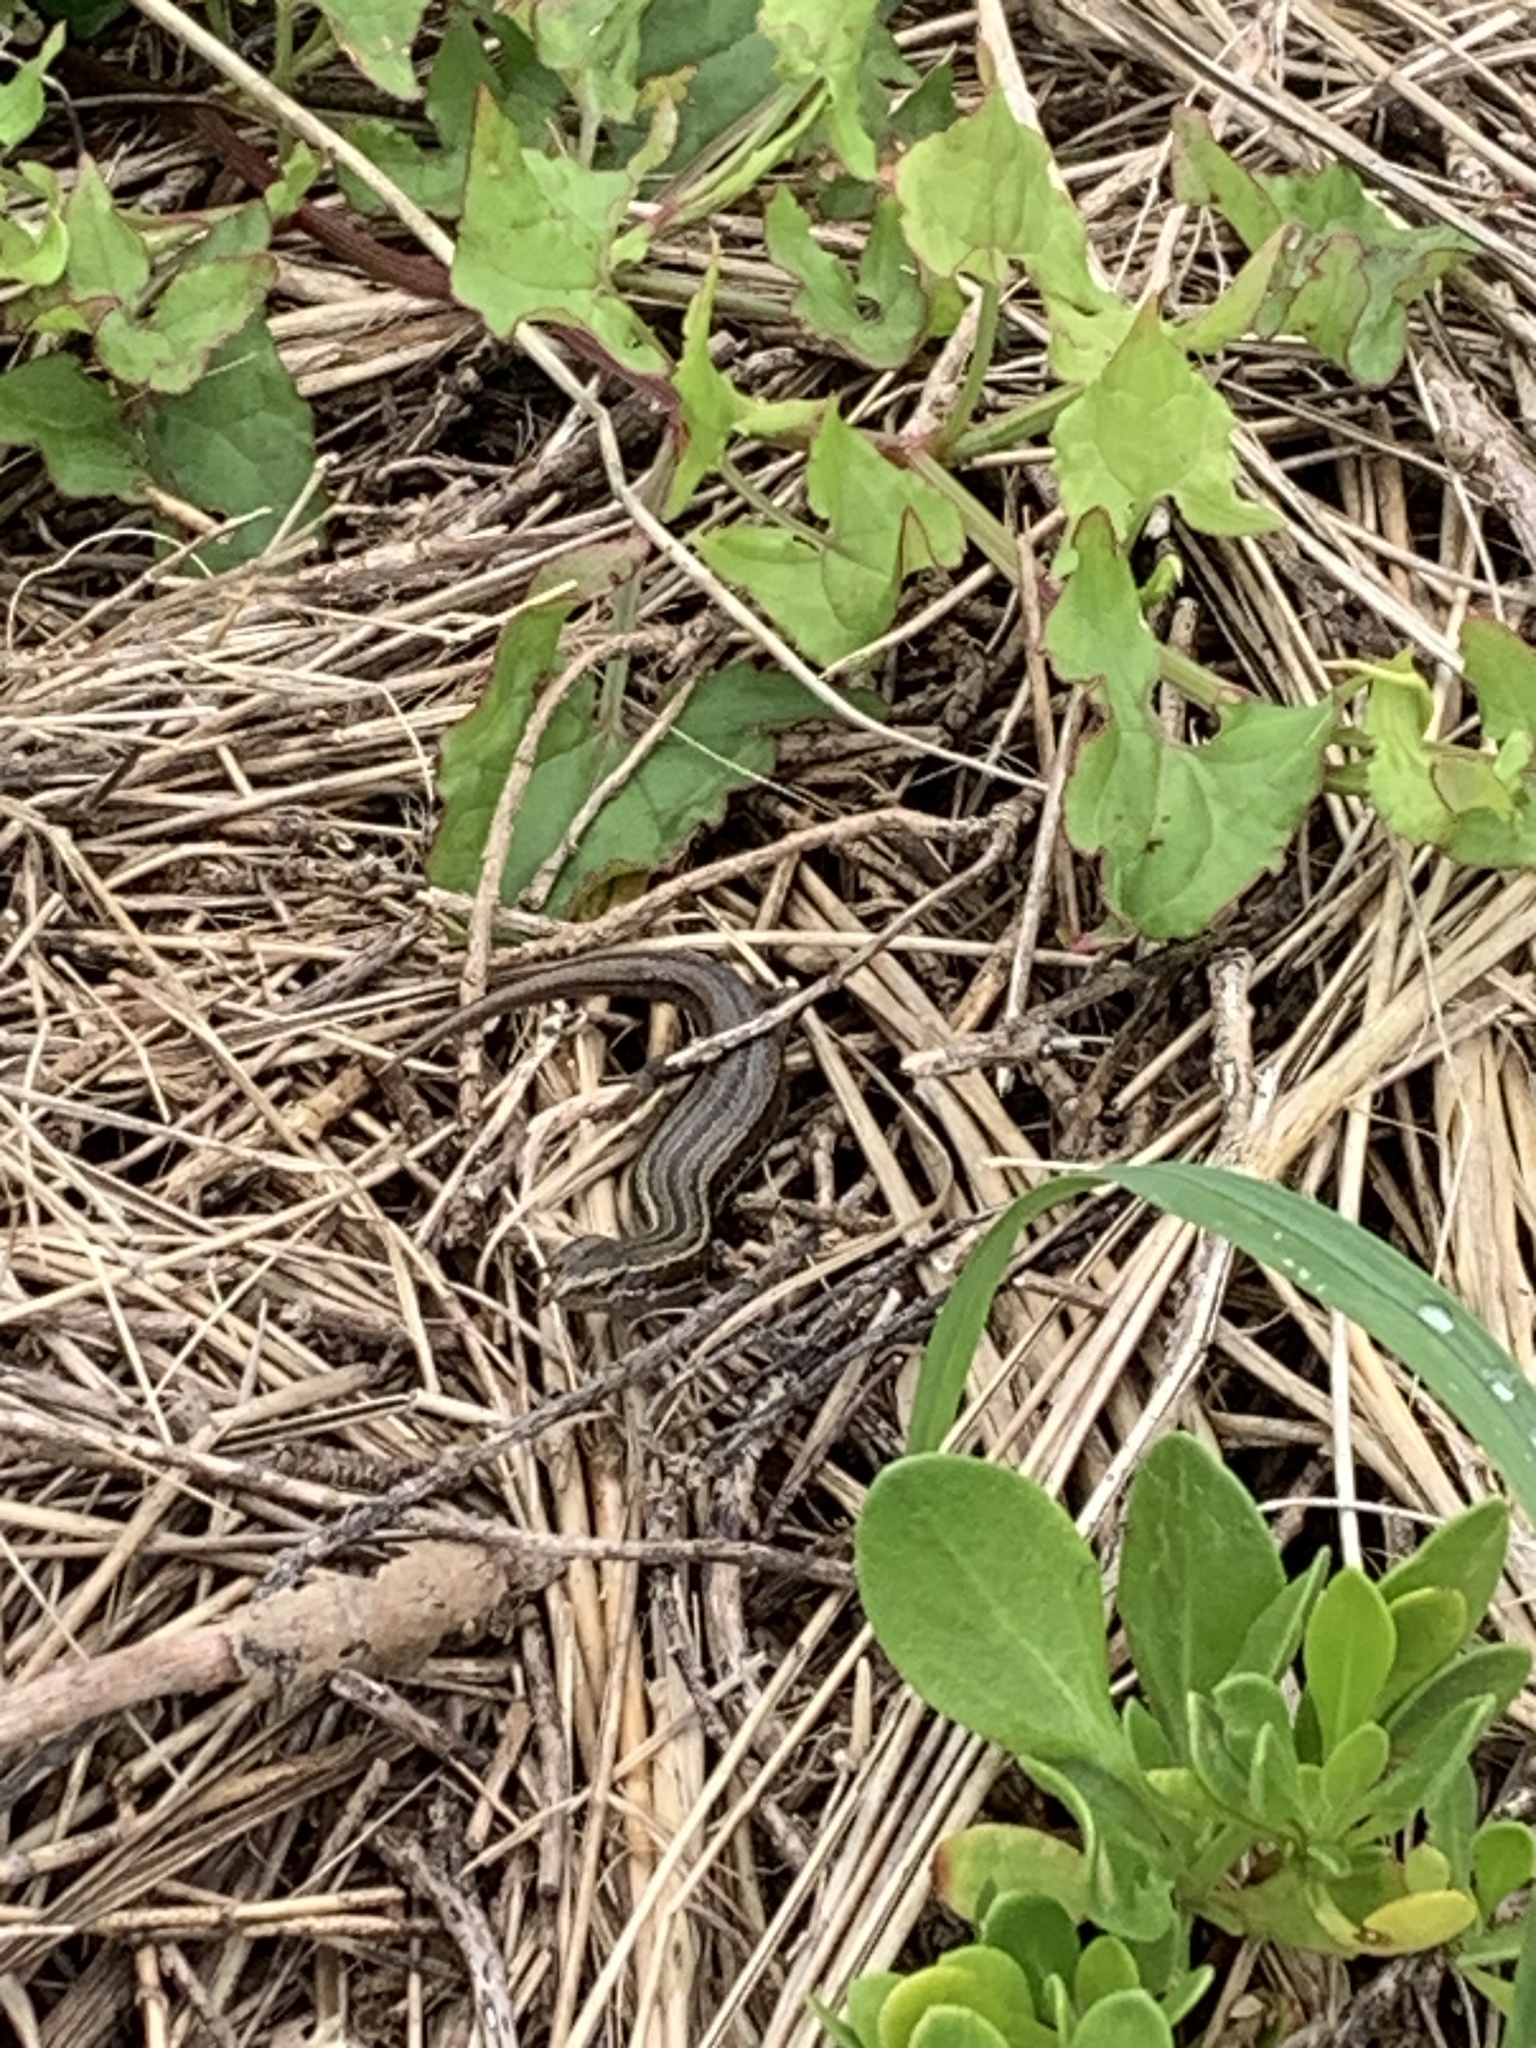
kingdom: Animalia
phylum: Chordata
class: Squamata
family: Scincidae
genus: Oligosoma
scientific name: Oligosoma polychroma
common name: Common new zealand skink
